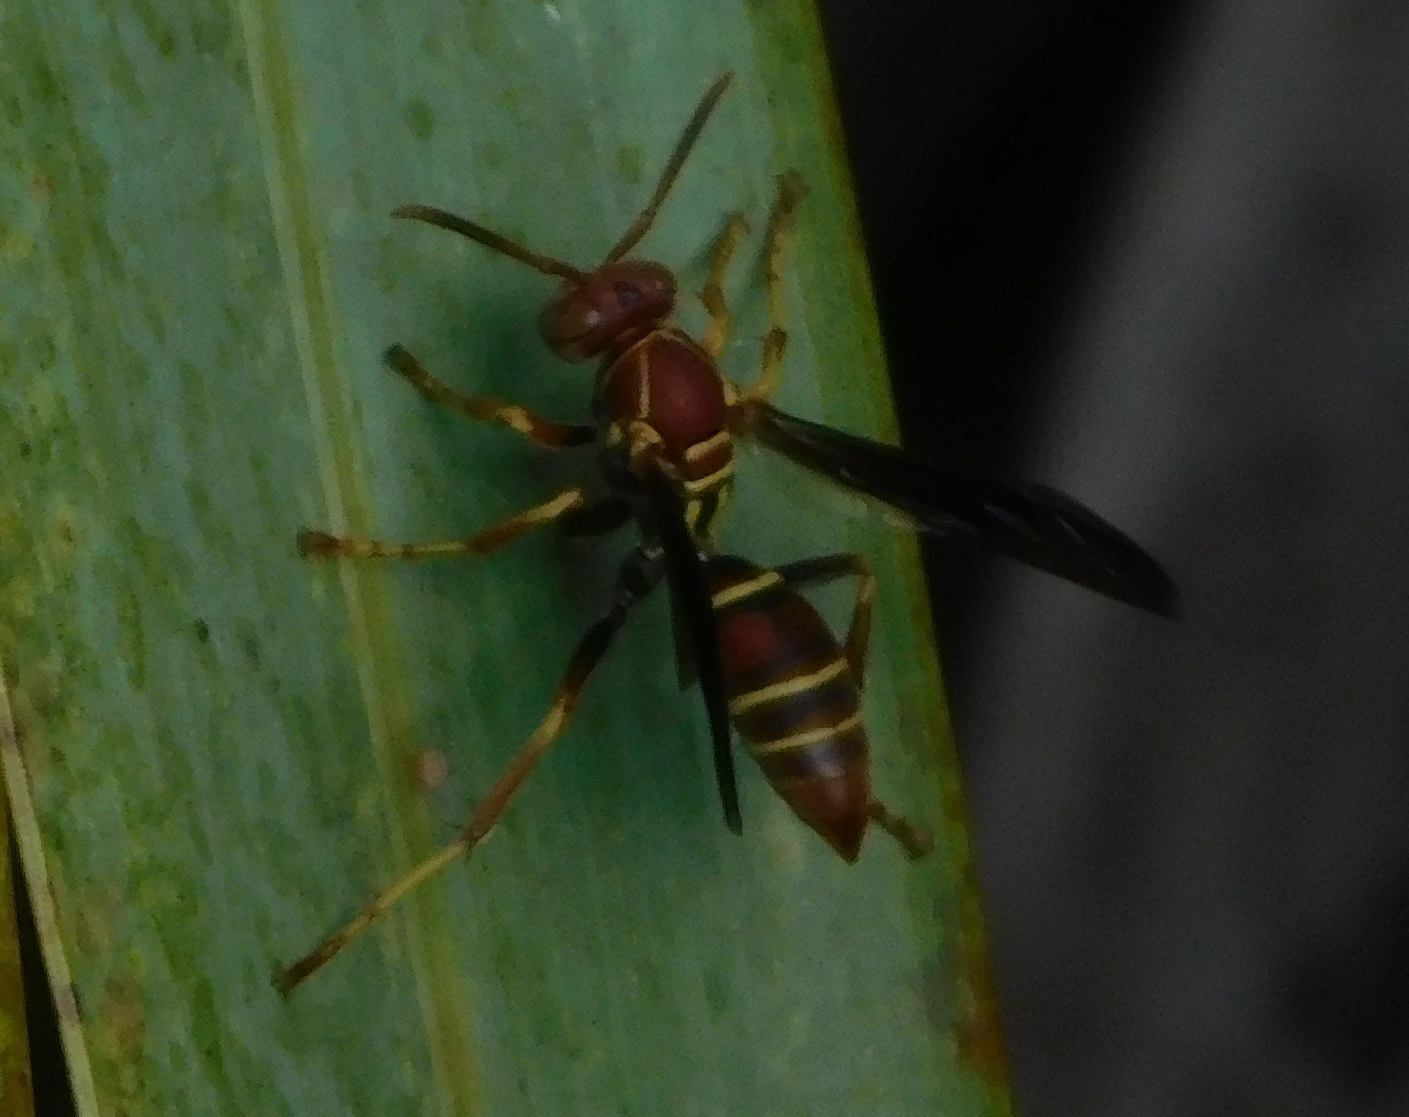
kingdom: Animalia
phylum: Arthropoda
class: Insecta
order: Hymenoptera
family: Eumenidae
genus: Polistes
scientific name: Polistes dorsalis
